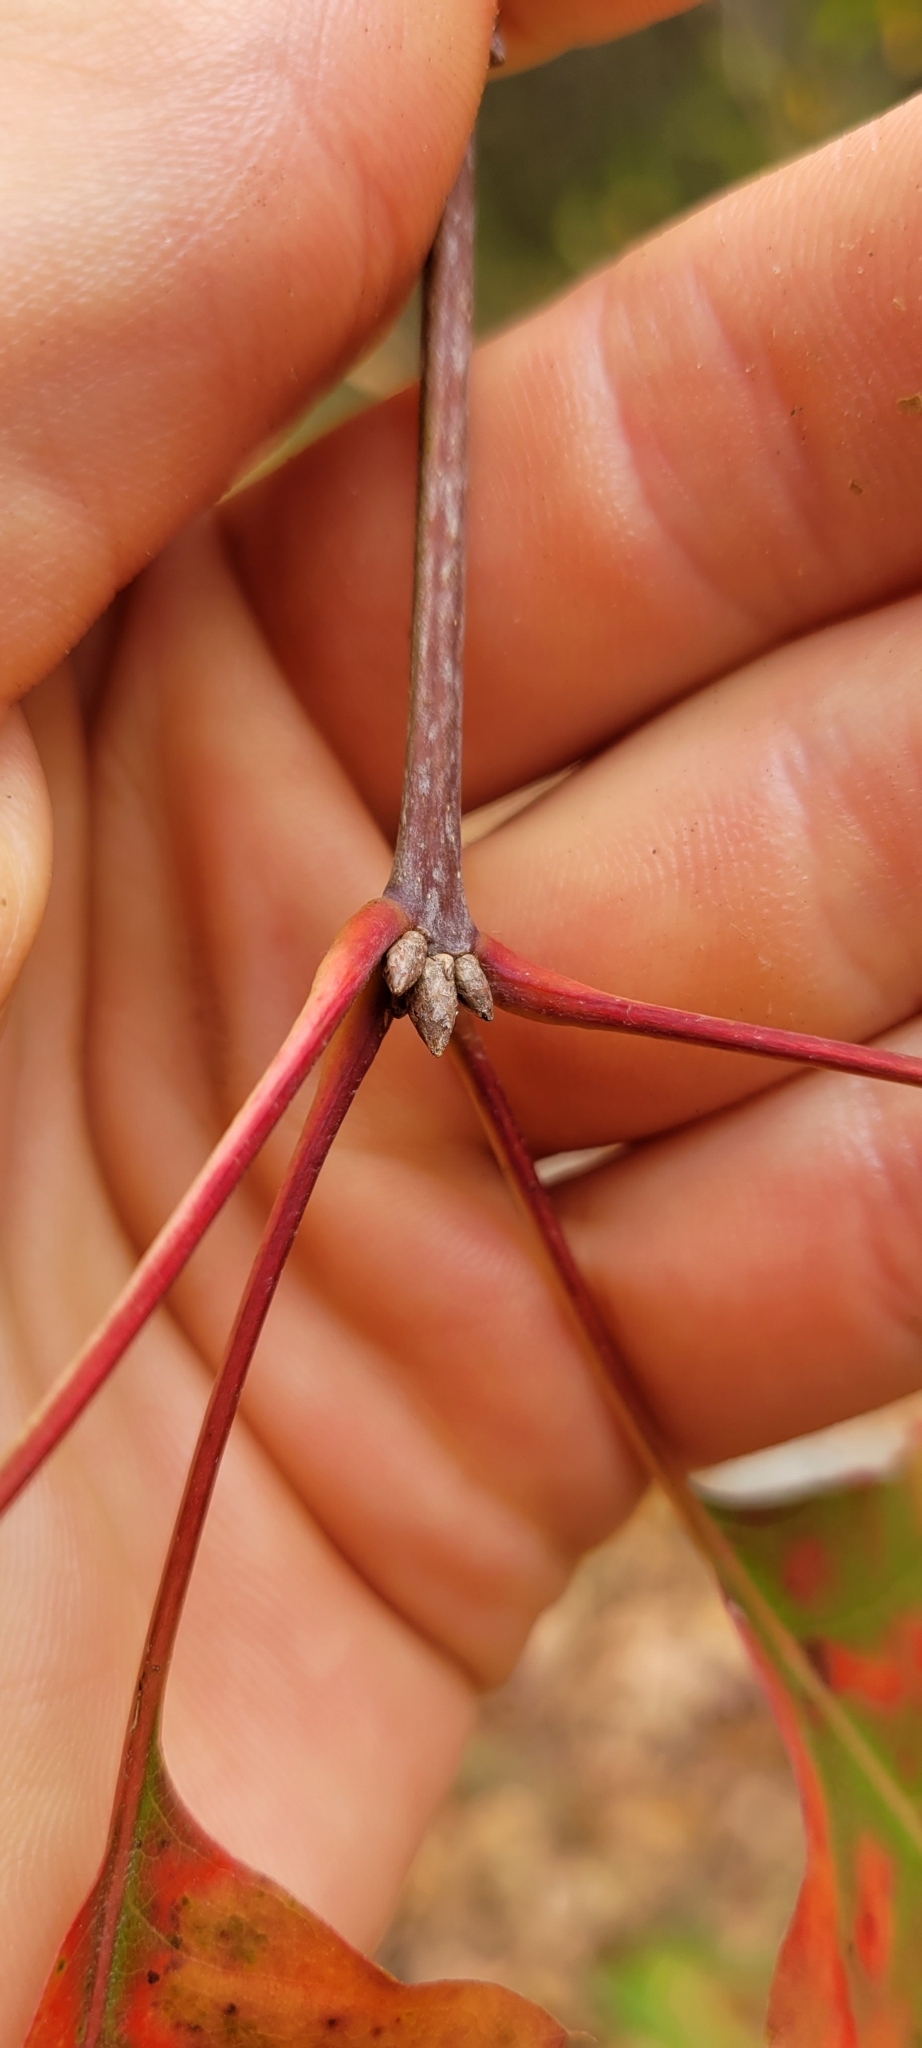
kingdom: Plantae
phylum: Tracheophyta
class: Magnoliopsida
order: Fagales
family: Fagaceae
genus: Quercus
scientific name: Quercus rubra
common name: Red oak
